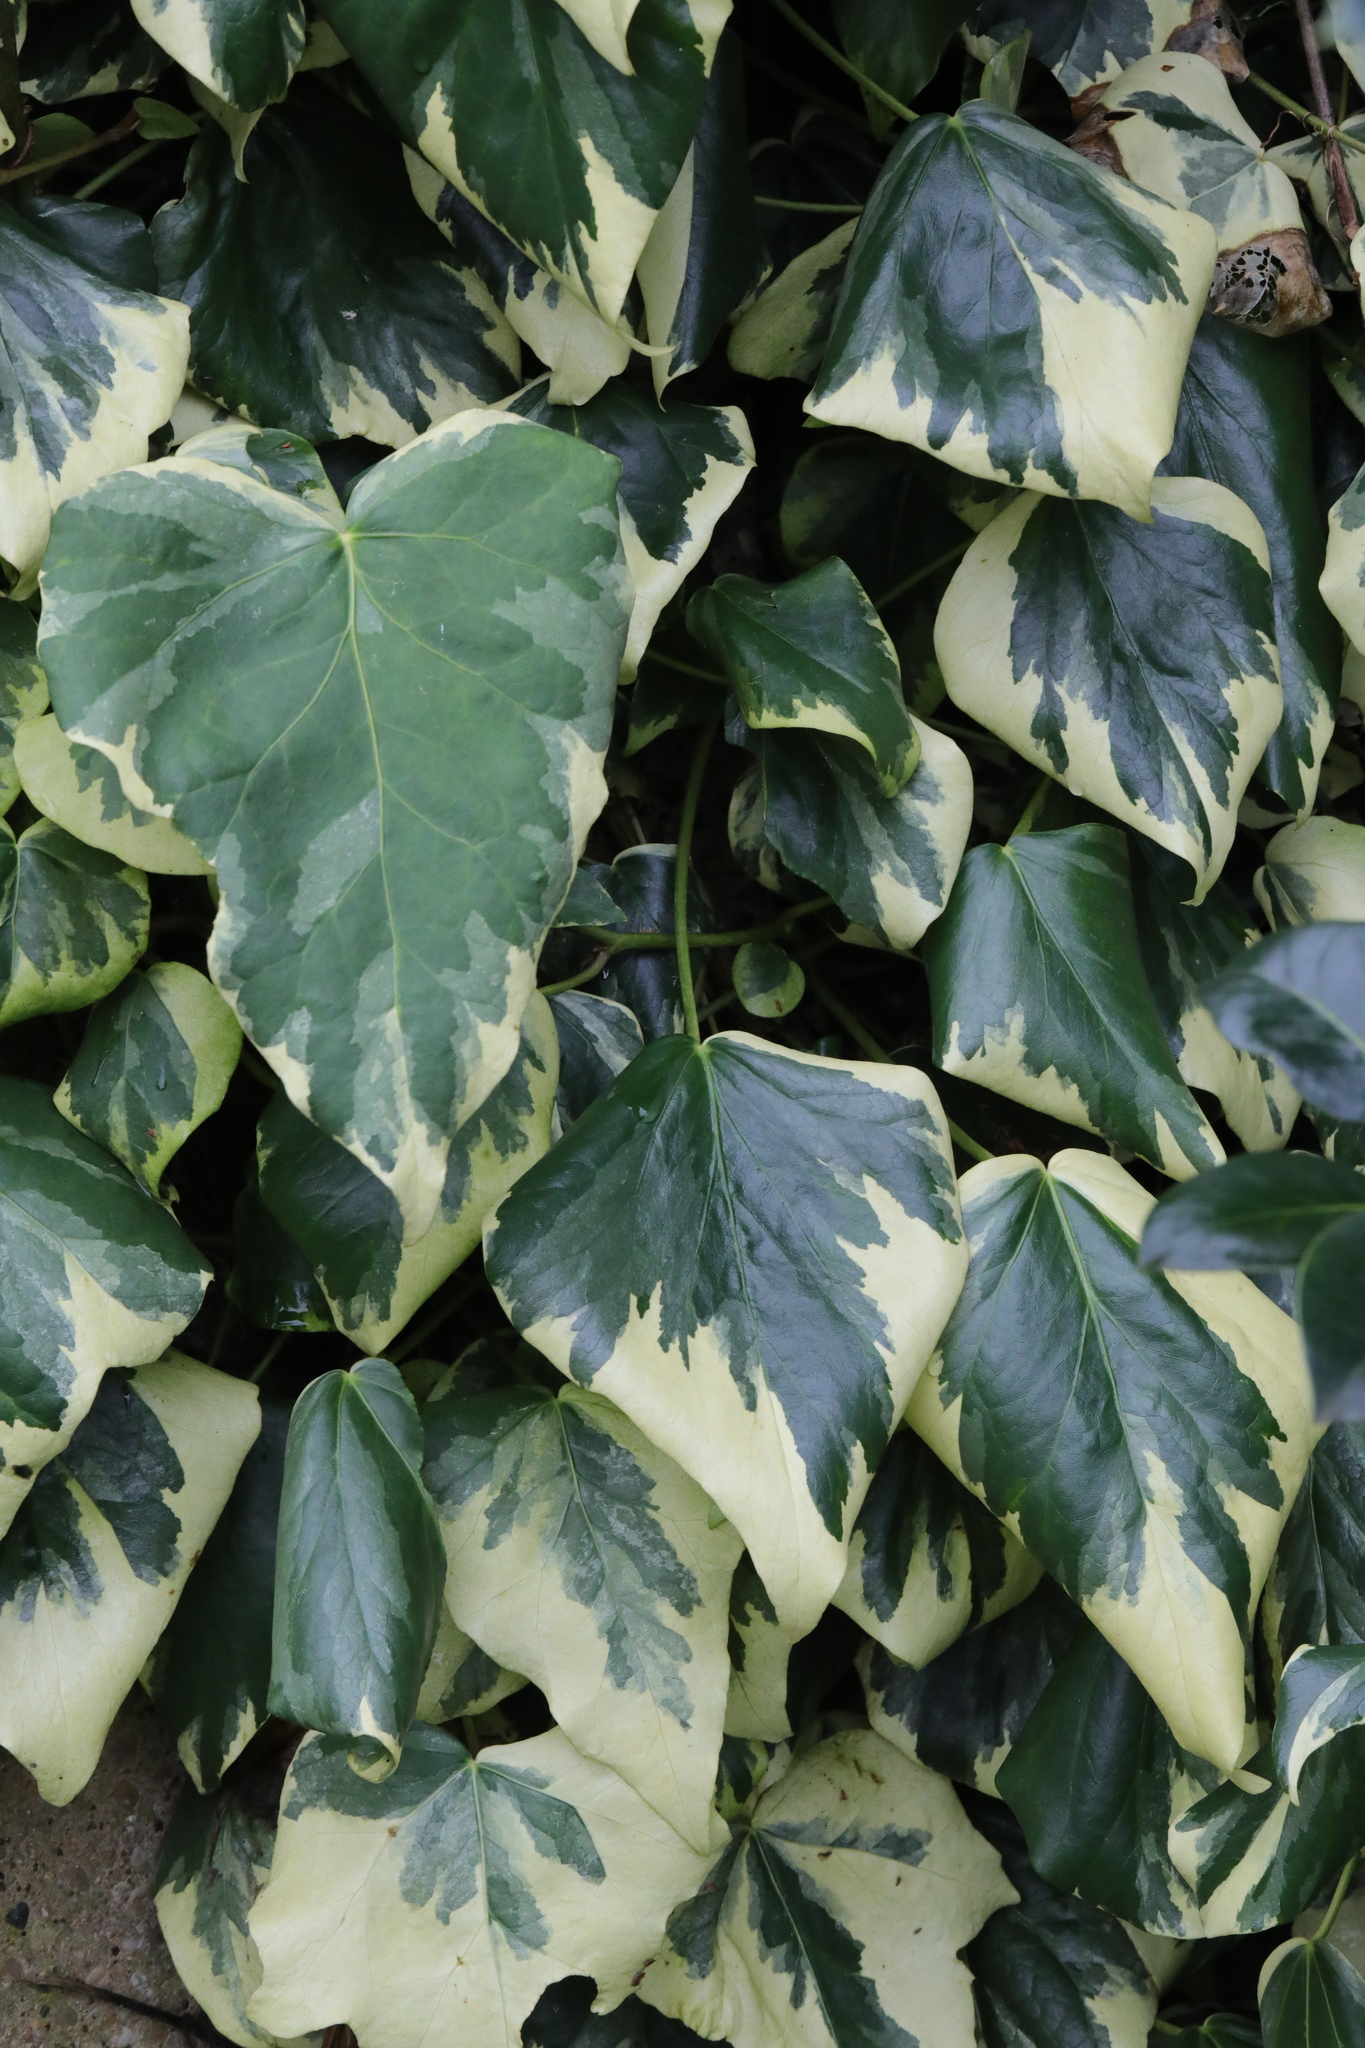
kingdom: Plantae
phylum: Tracheophyta
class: Magnoliopsida
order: Apiales
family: Araliaceae
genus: Hedera
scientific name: Hedera colchica
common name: Persian ivy
